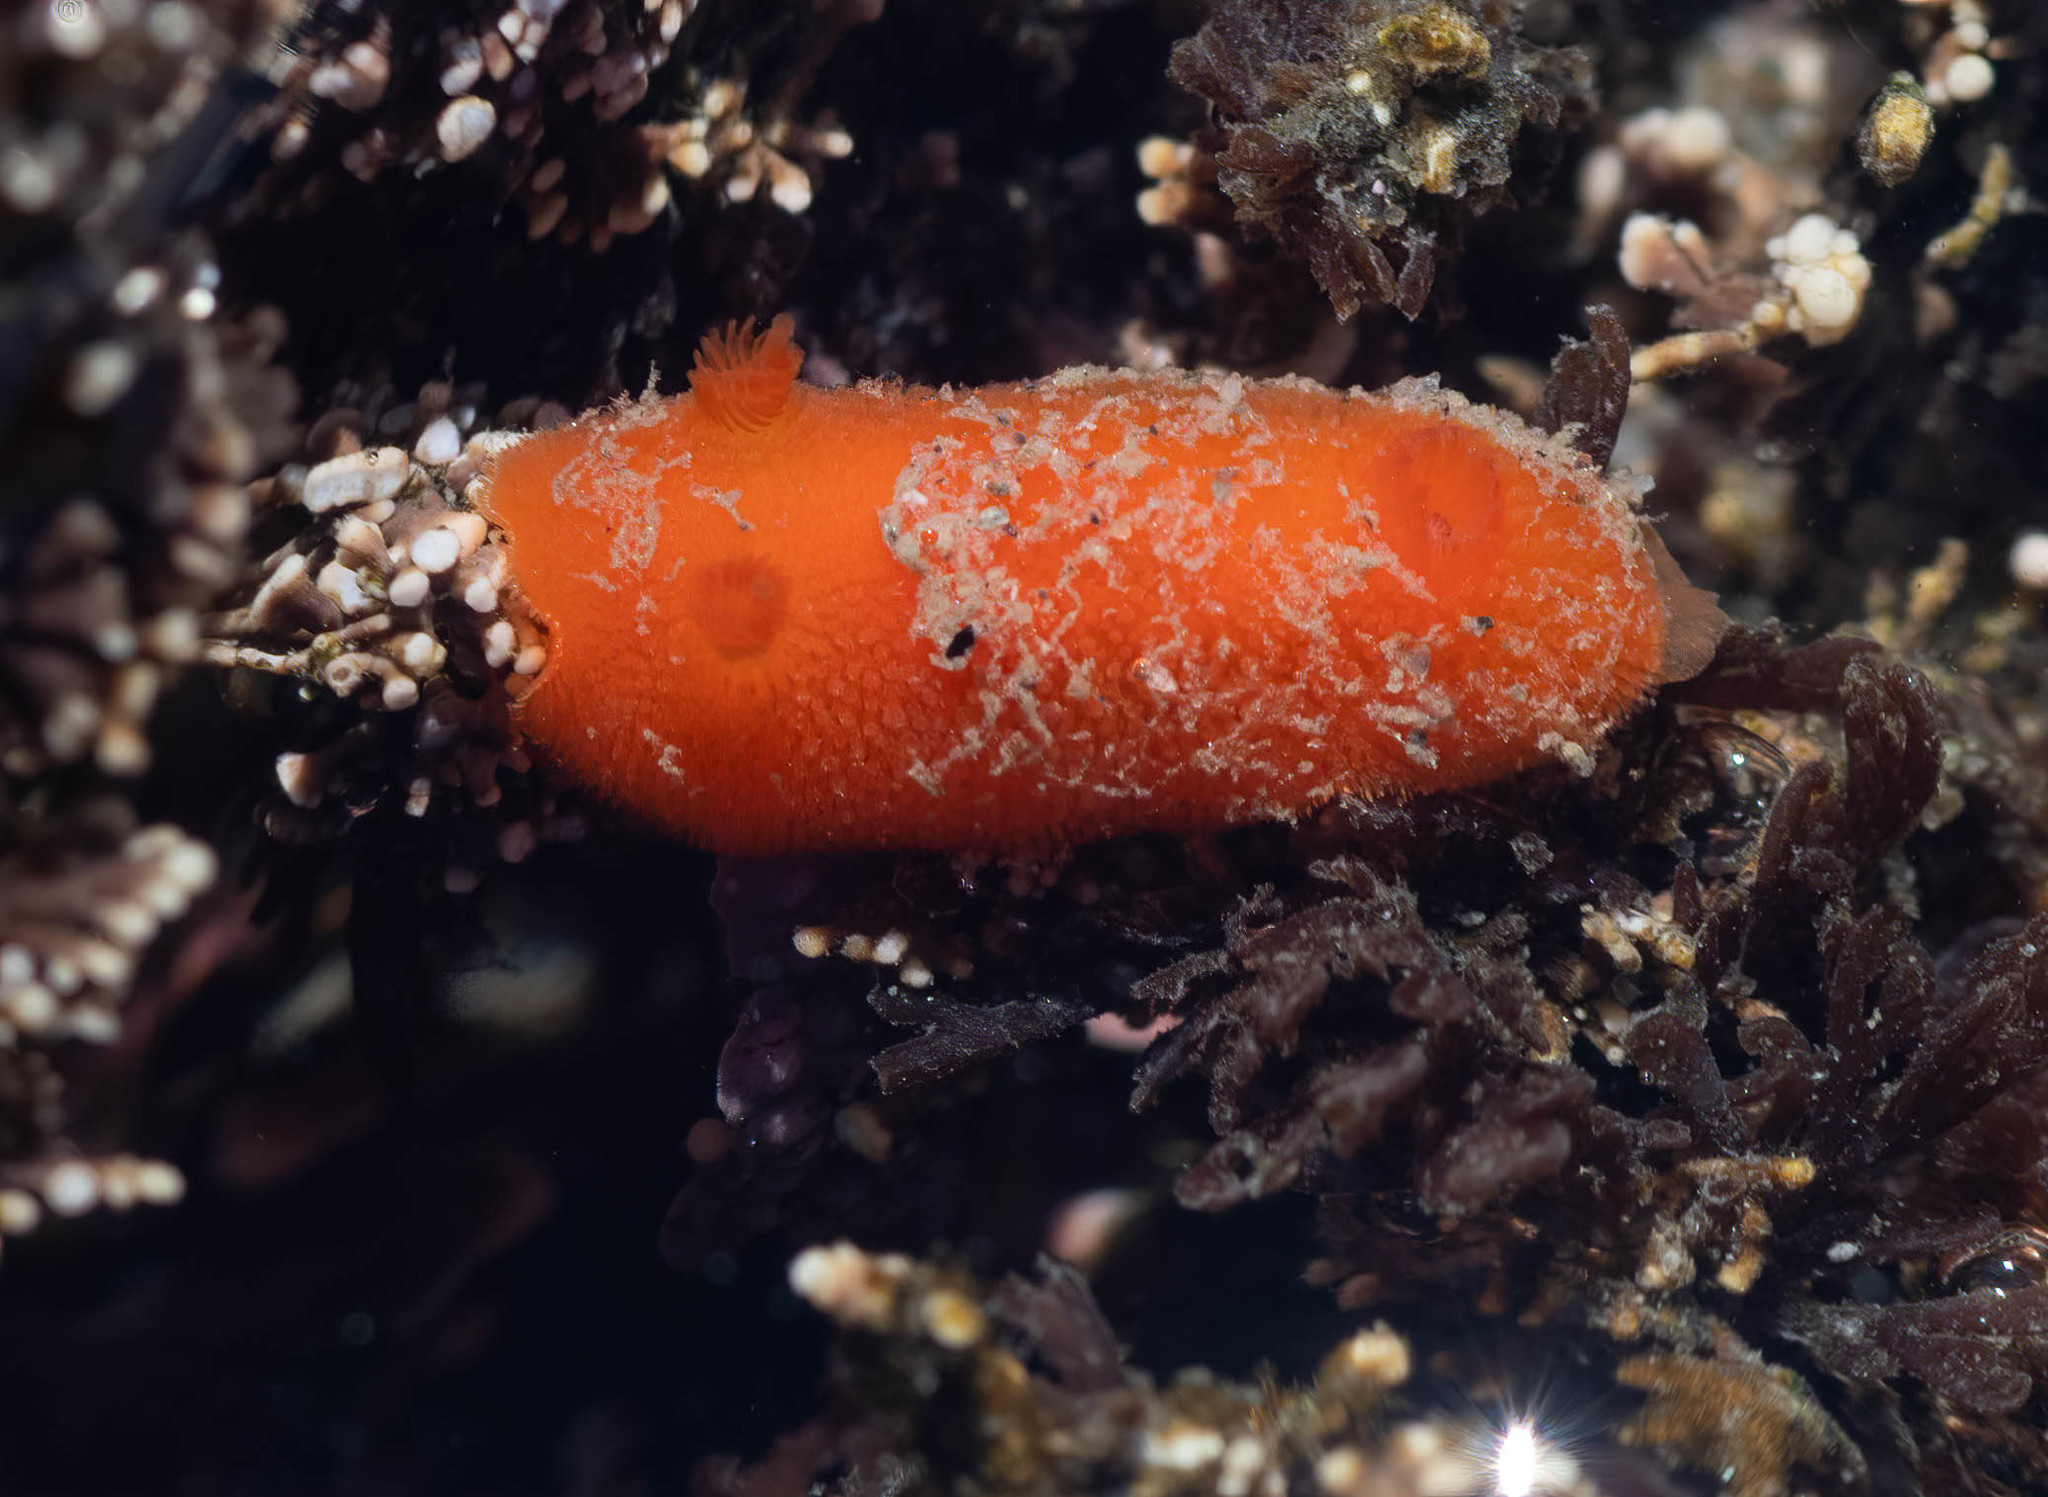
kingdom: Animalia
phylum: Mollusca
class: Gastropoda
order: Nudibranchia
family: Discodorididae
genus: Rostanga
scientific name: Rostanga pulchra
